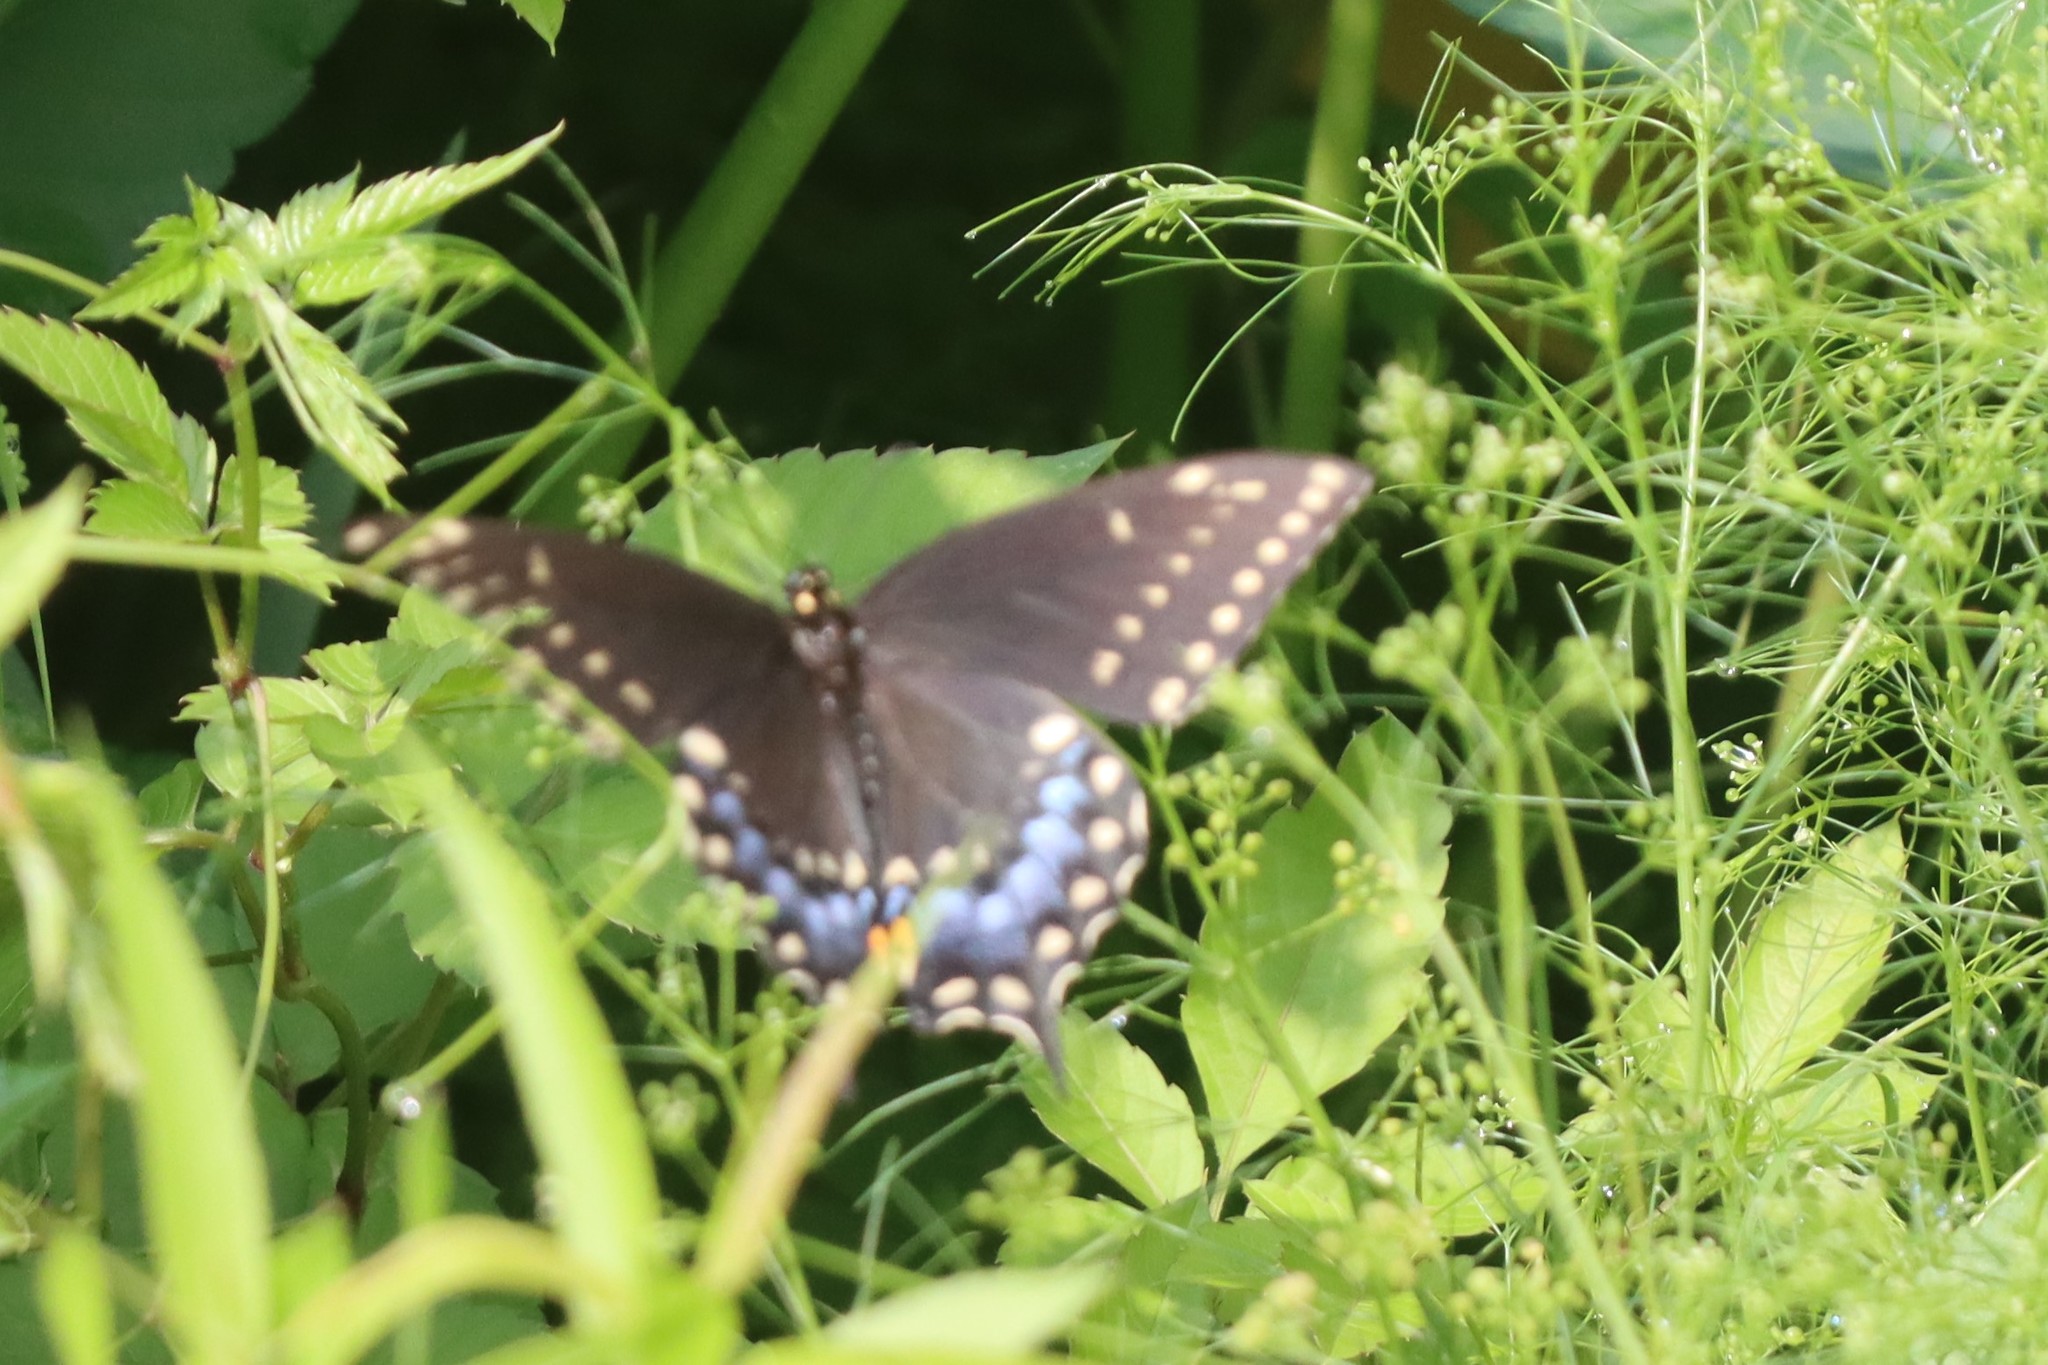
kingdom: Animalia
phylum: Arthropoda
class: Insecta
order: Lepidoptera
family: Papilionidae
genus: Papilio
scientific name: Papilio polyxenes
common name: Black swallowtail
